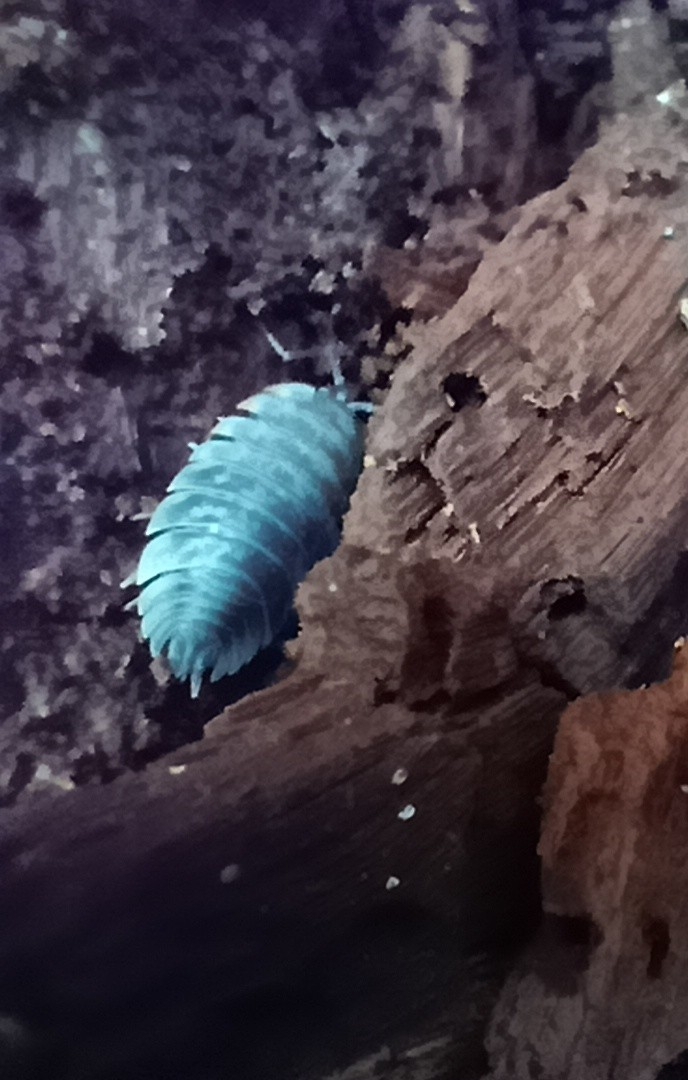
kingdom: Animalia
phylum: Arthropoda
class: Malacostraca
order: Isopoda
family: Oniscidae
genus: Oniscus
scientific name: Oniscus asellus
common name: Common shiny woodlouse
